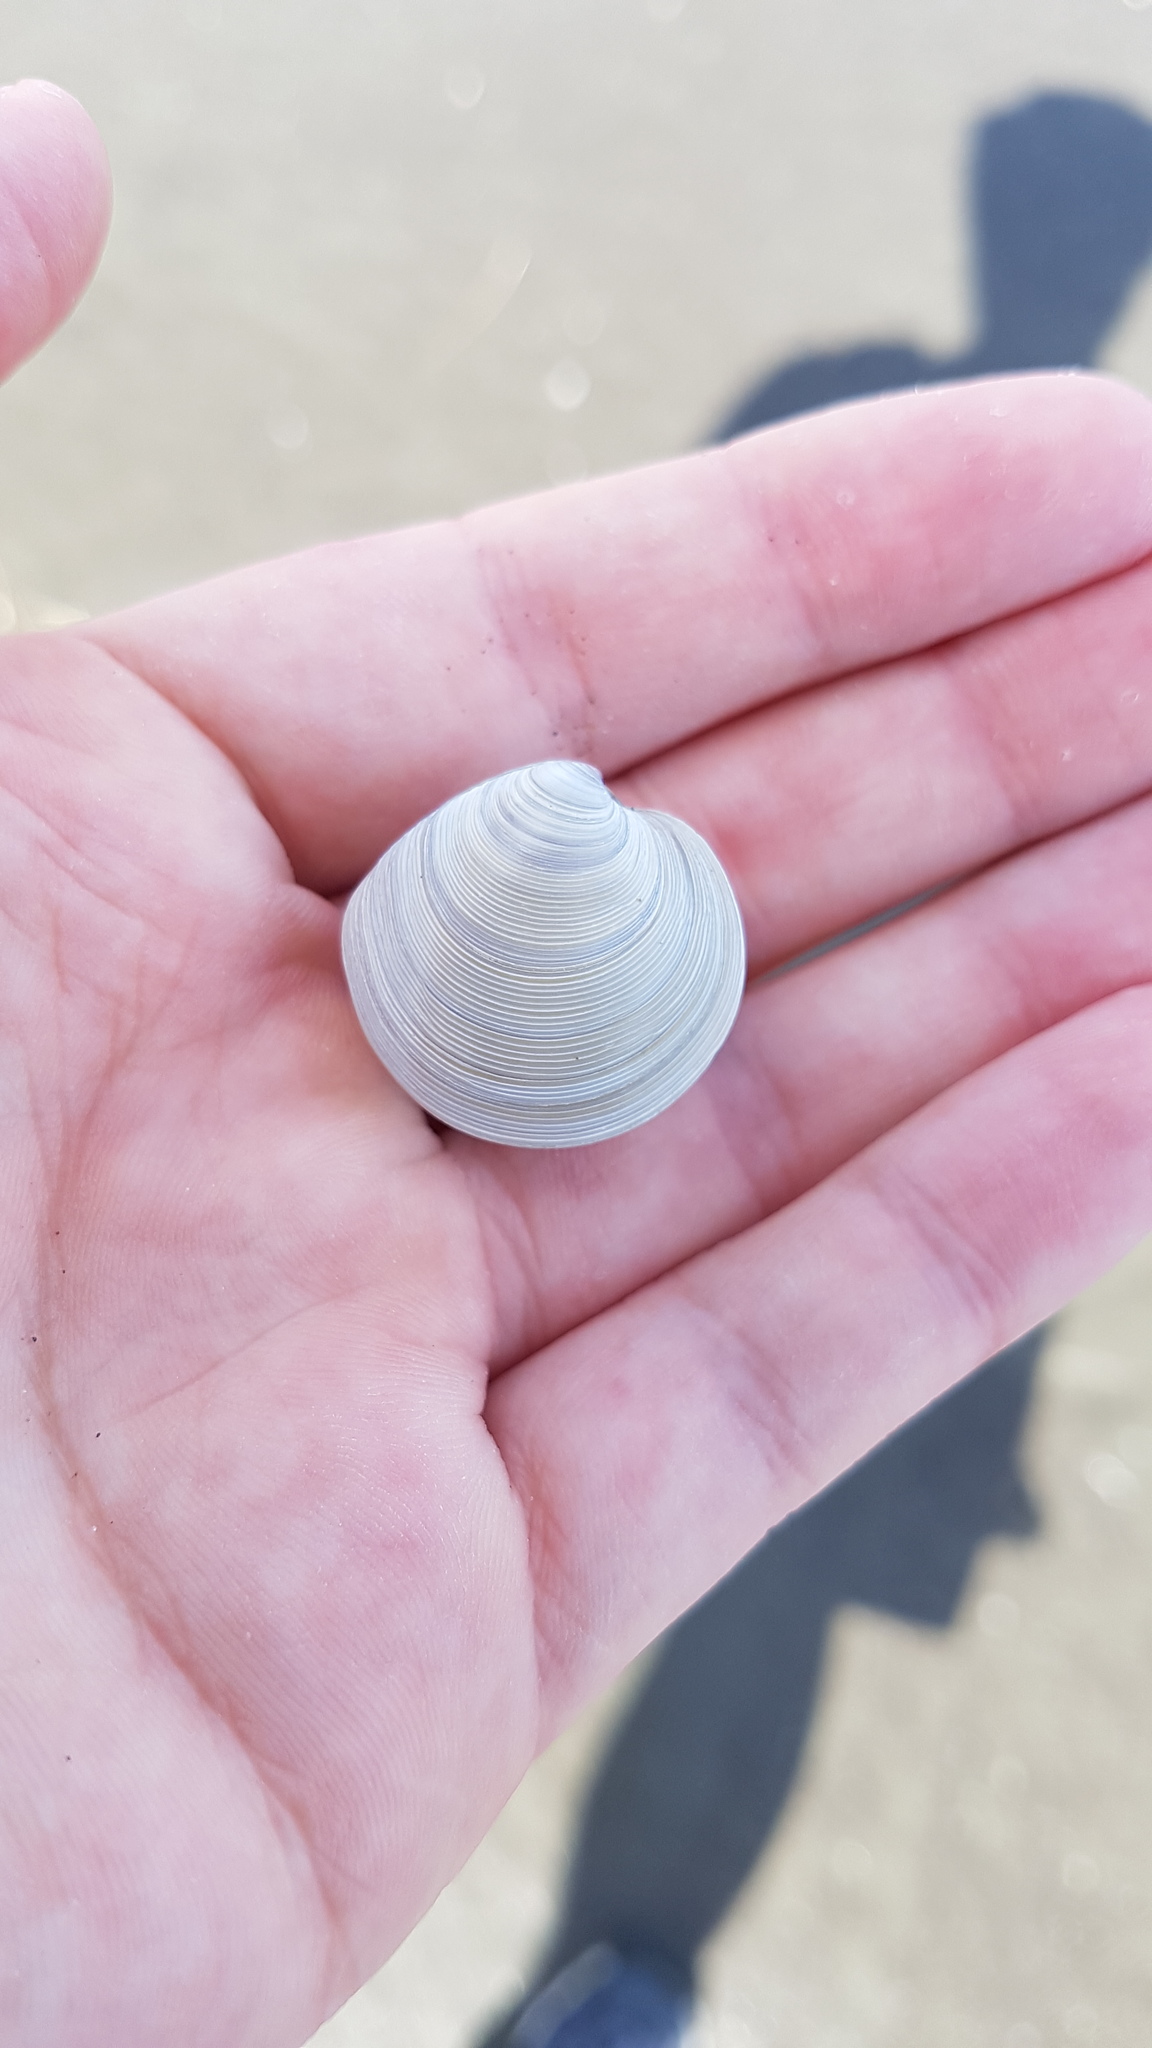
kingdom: Animalia
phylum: Mollusca
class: Bivalvia
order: Venerida
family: Veneridae
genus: Dosinia
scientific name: Dosinia subrosea
